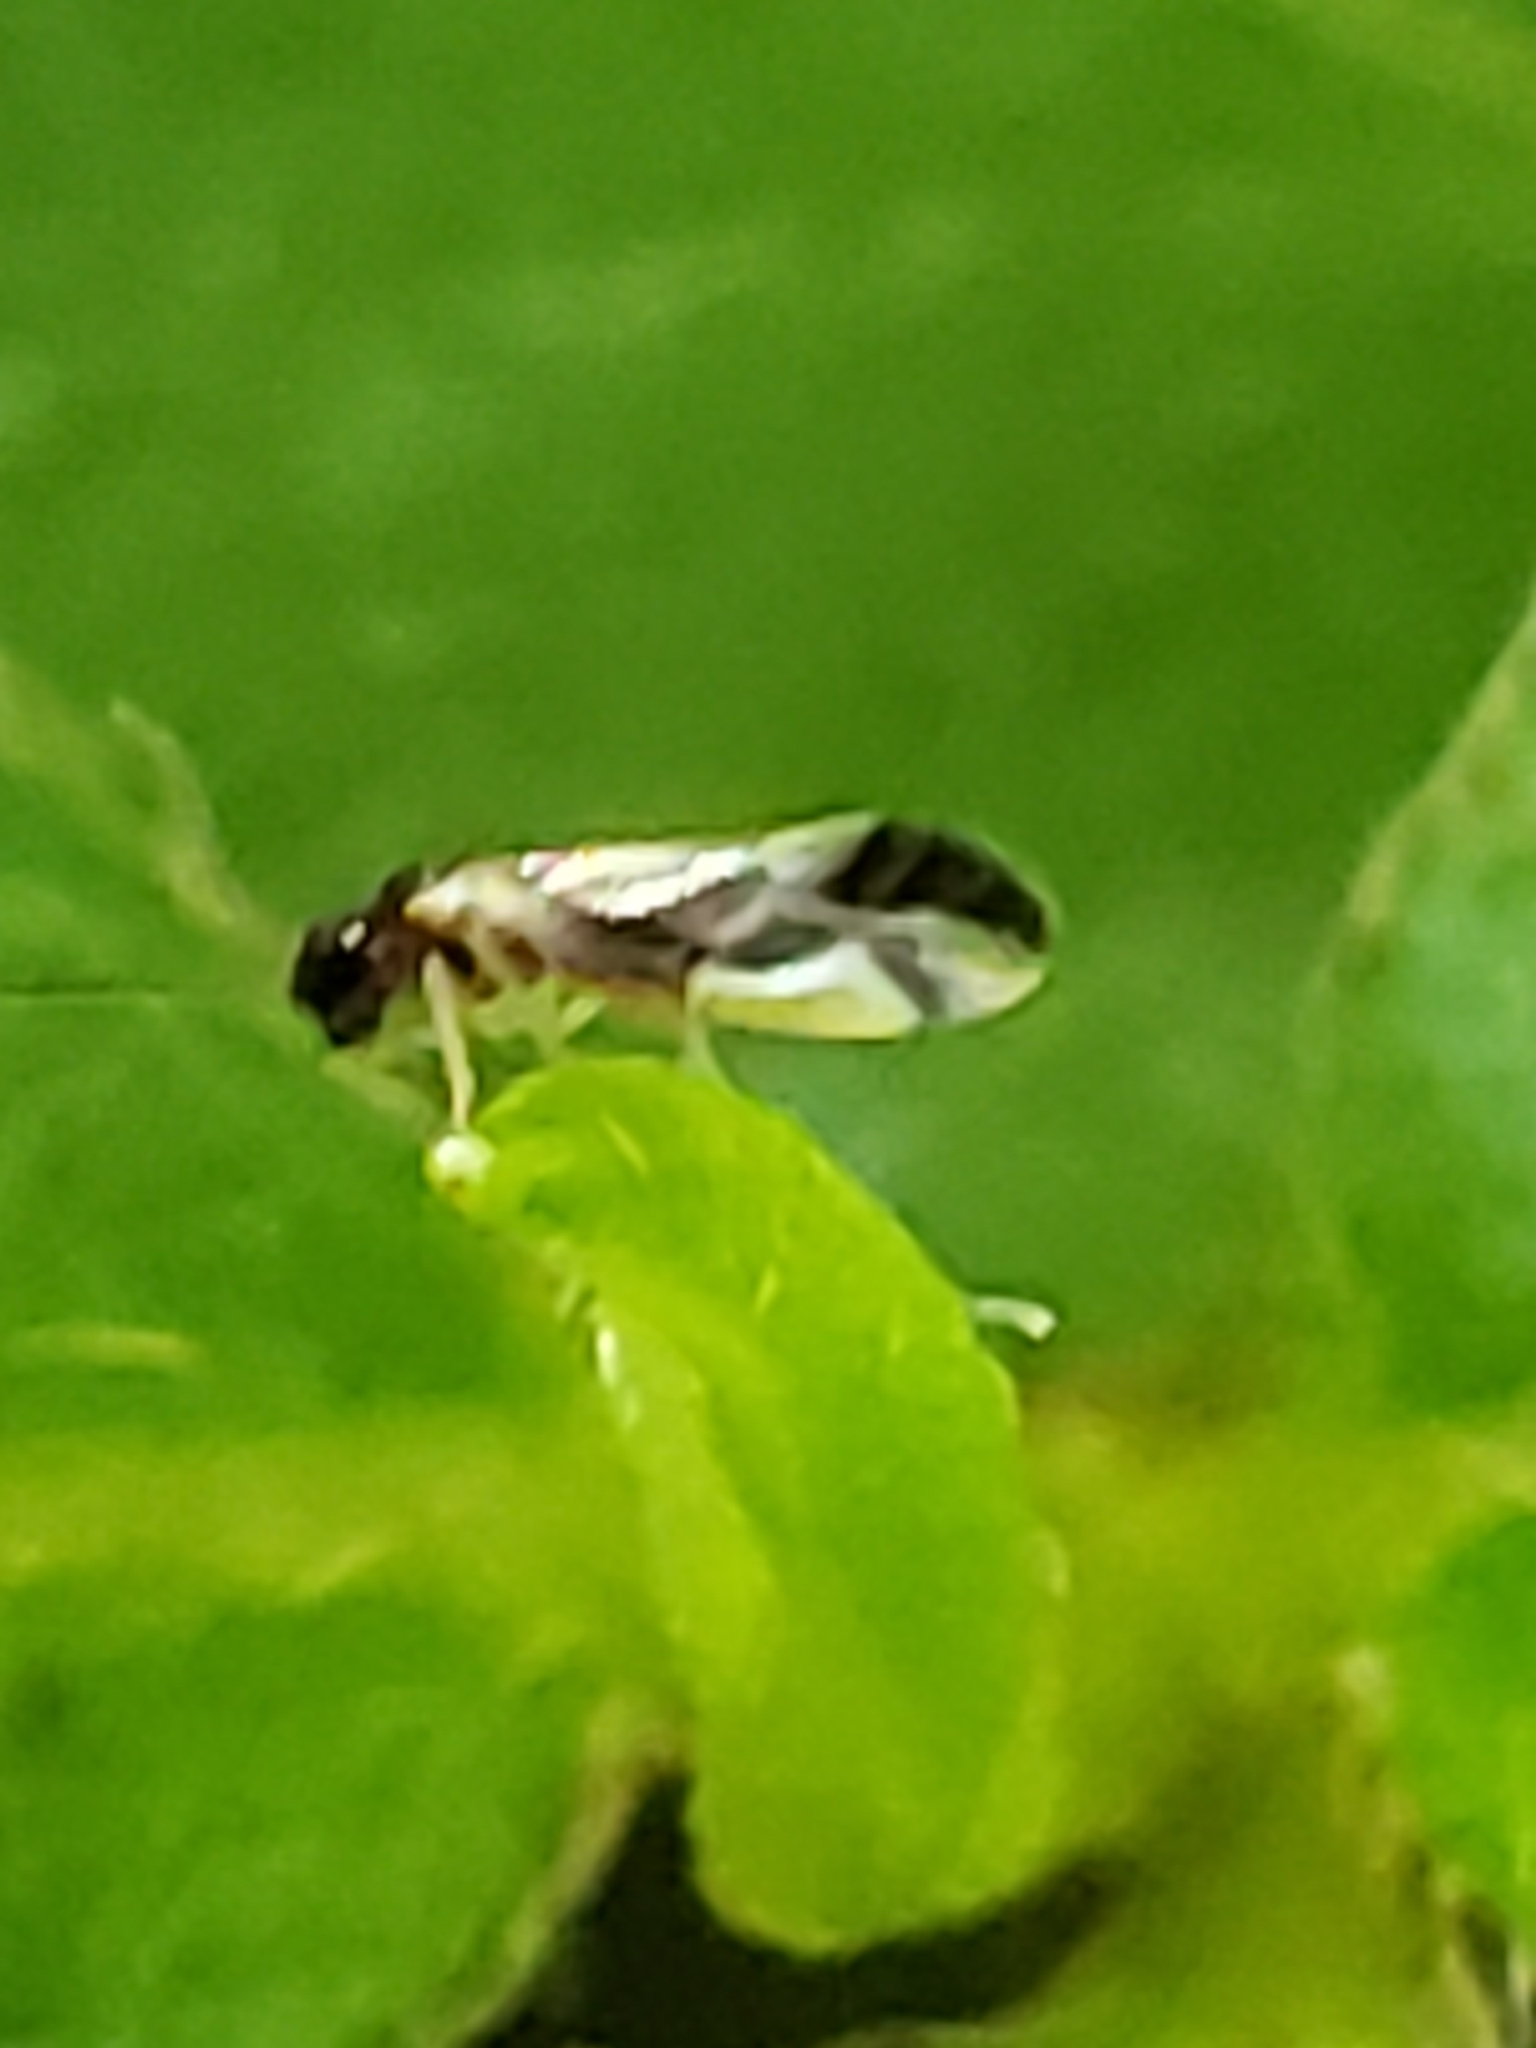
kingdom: Animalia
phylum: Arthropoda
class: Insecta
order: Psocodea
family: Caeciliusidae
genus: Valenzuela
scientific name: Valenzuela posticus
